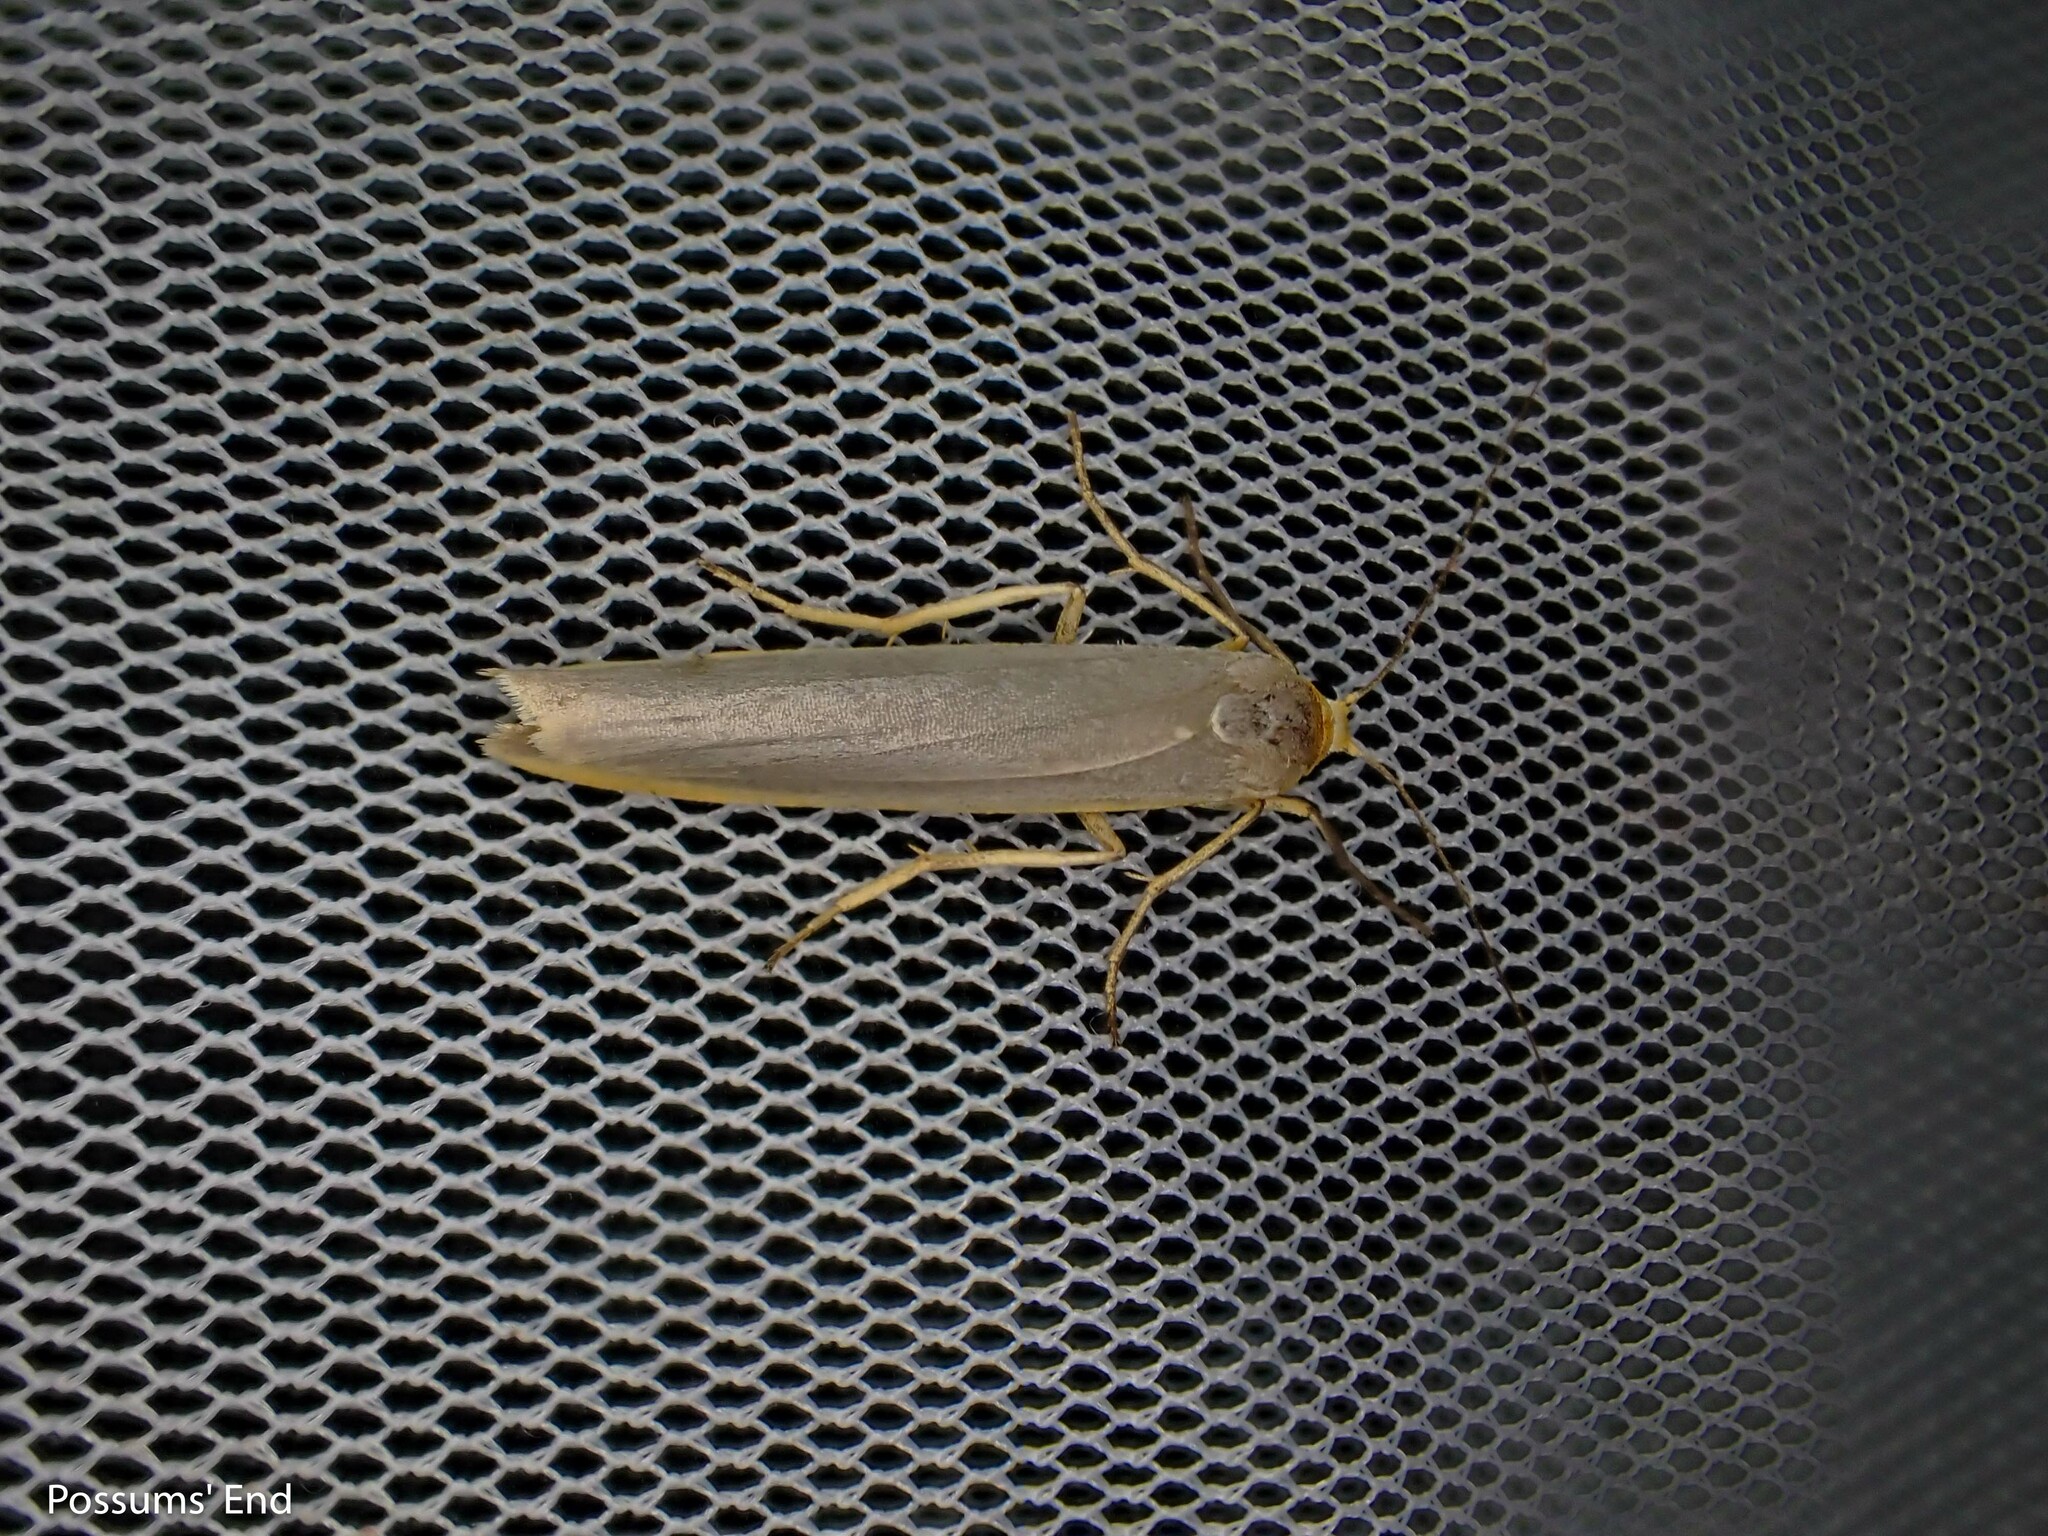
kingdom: Animalia
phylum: Arthropoda
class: Insecta
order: Lepidoptera
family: Erebidae
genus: Manulea
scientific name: Manulea complana
